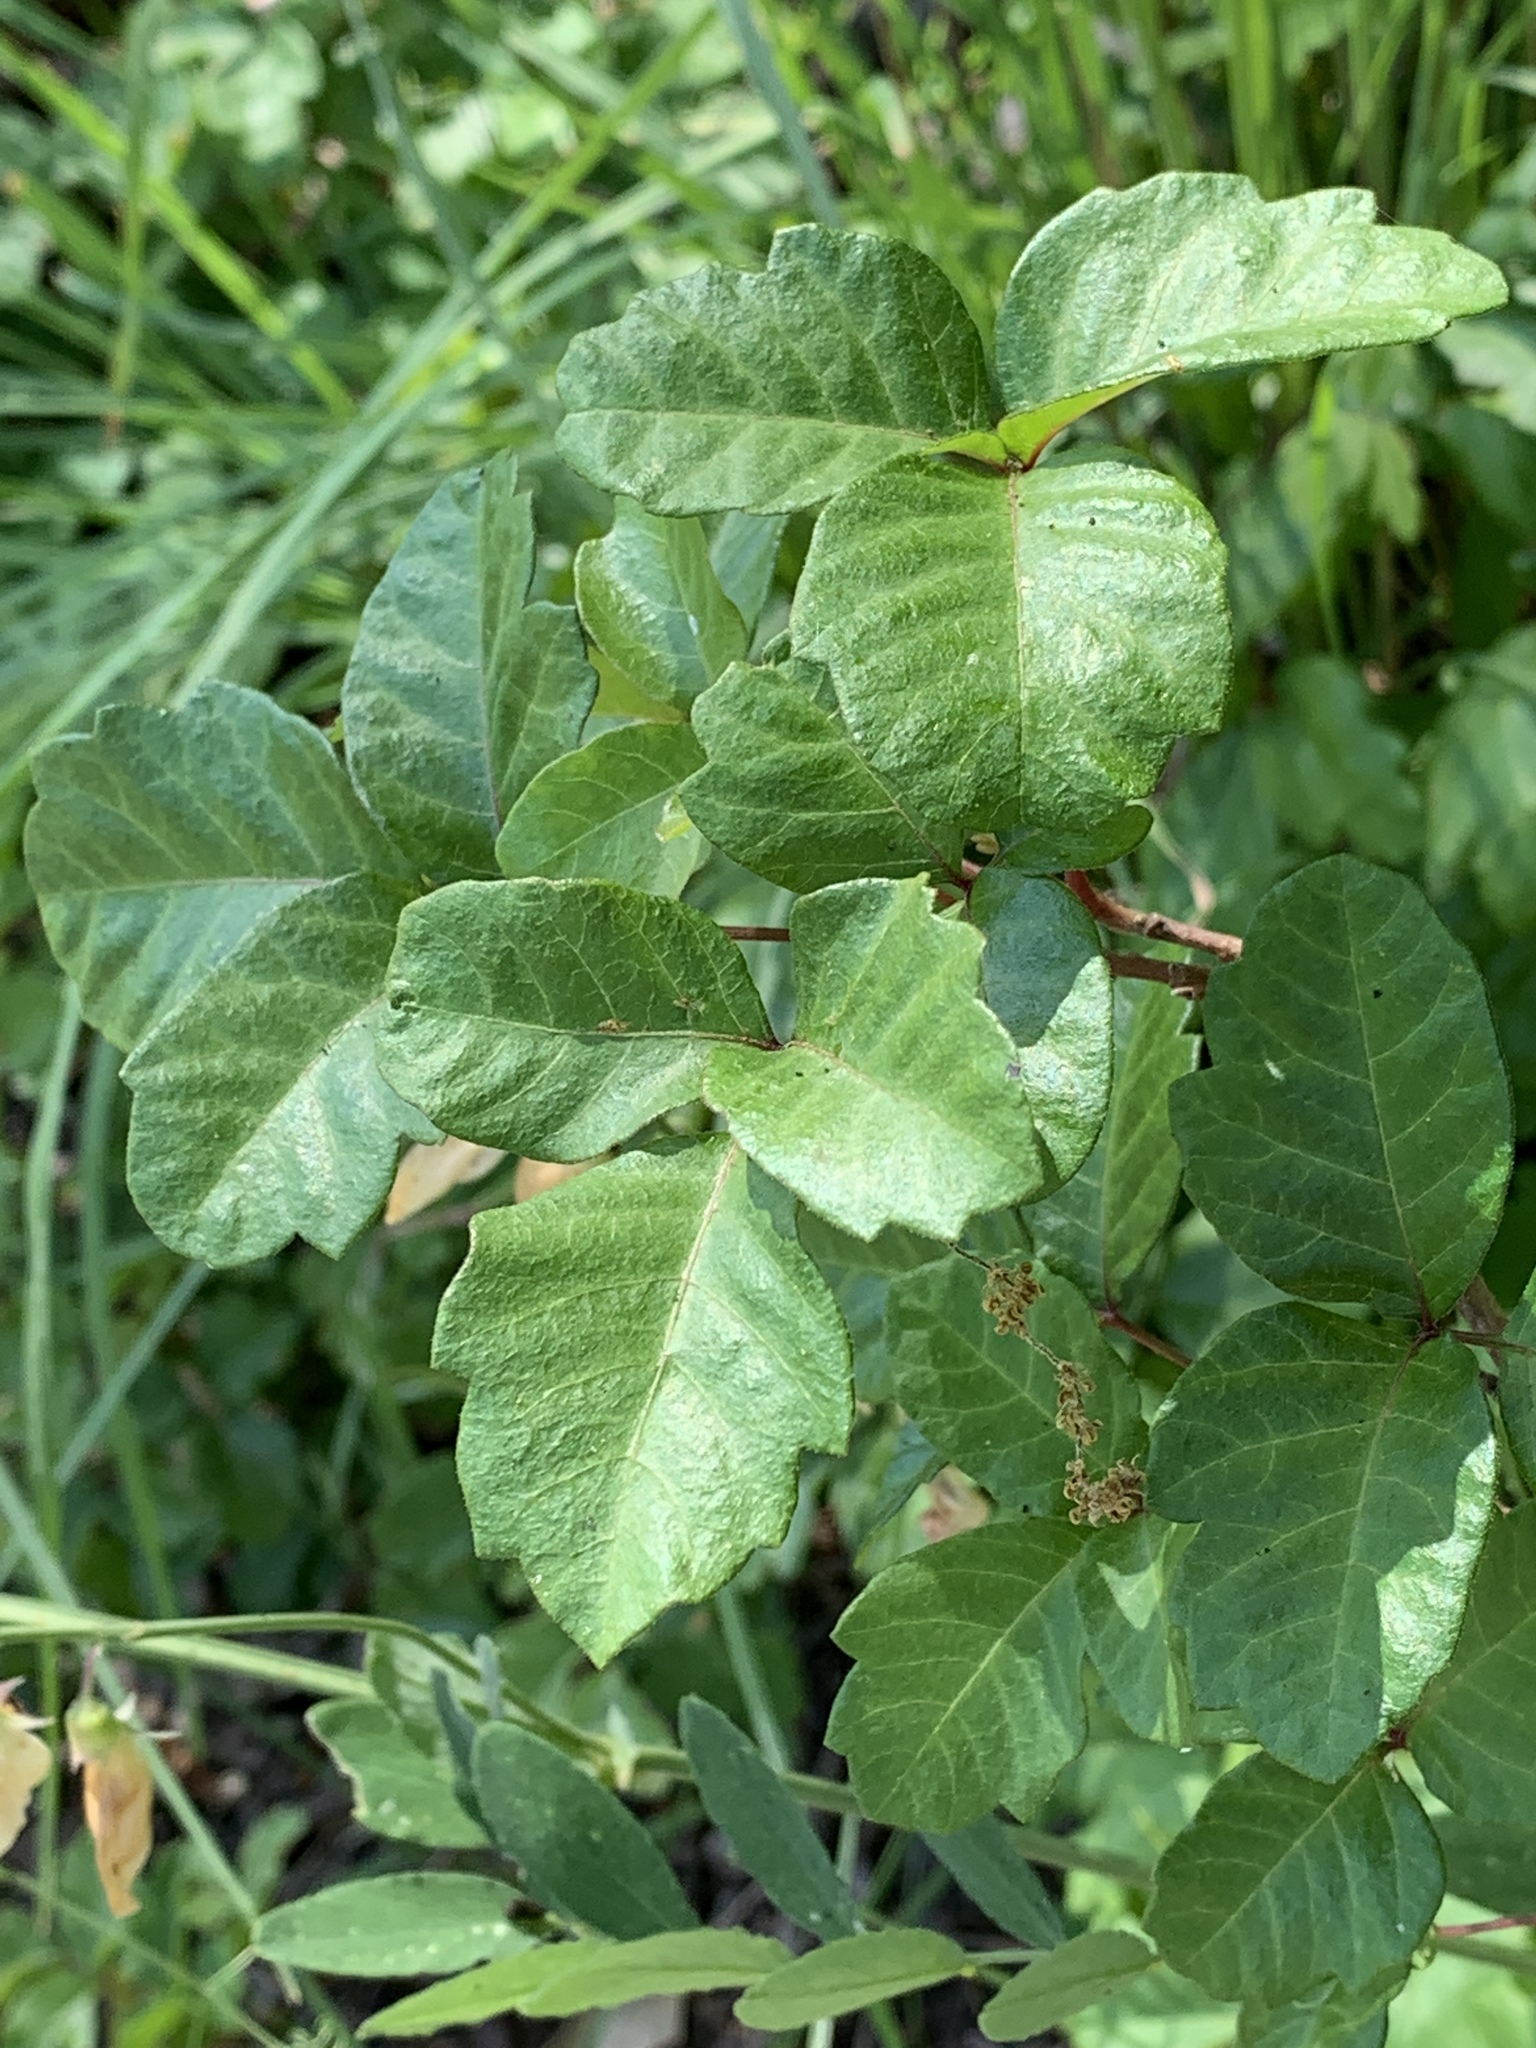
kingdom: Plantae
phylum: Tracheophyta
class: Magnoliopsida
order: Sapindales
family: Anacardiaceae
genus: Toxicodendron
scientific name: Toxicodendron diversilobum
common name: Pacific poison-oak
